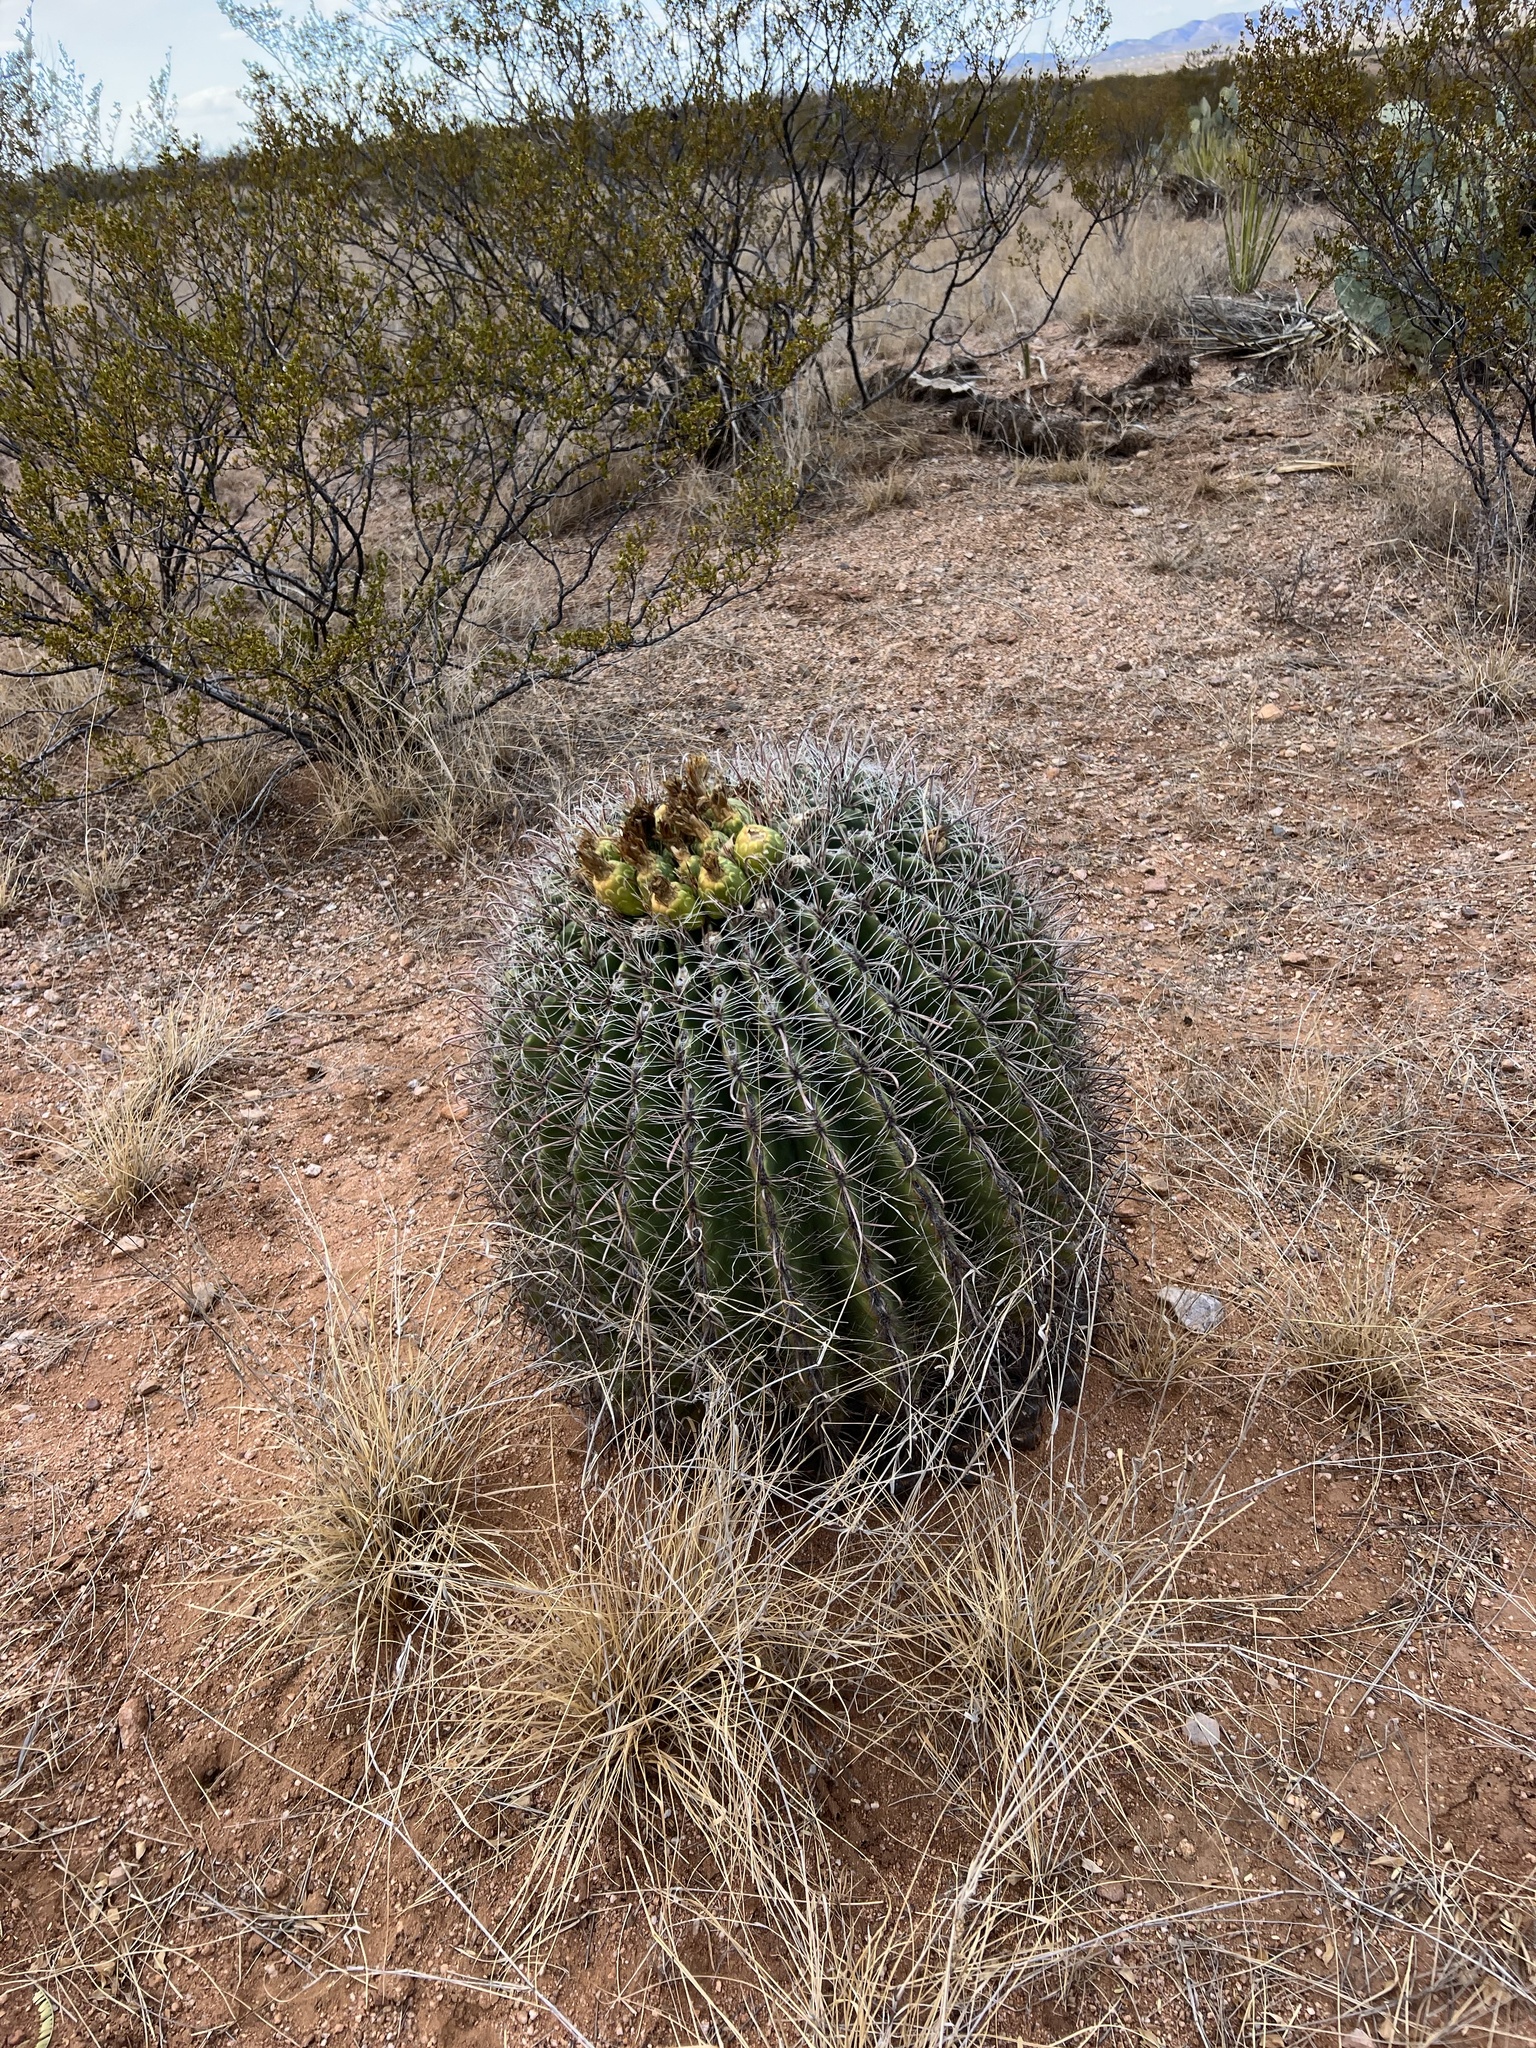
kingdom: Plantae
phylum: Tracheophyta
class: Magnoliopsida
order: Caryophyllales
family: Cactaceae
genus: Ferocactus
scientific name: Ferocactus wislizeni
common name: Candy barrel cactus
